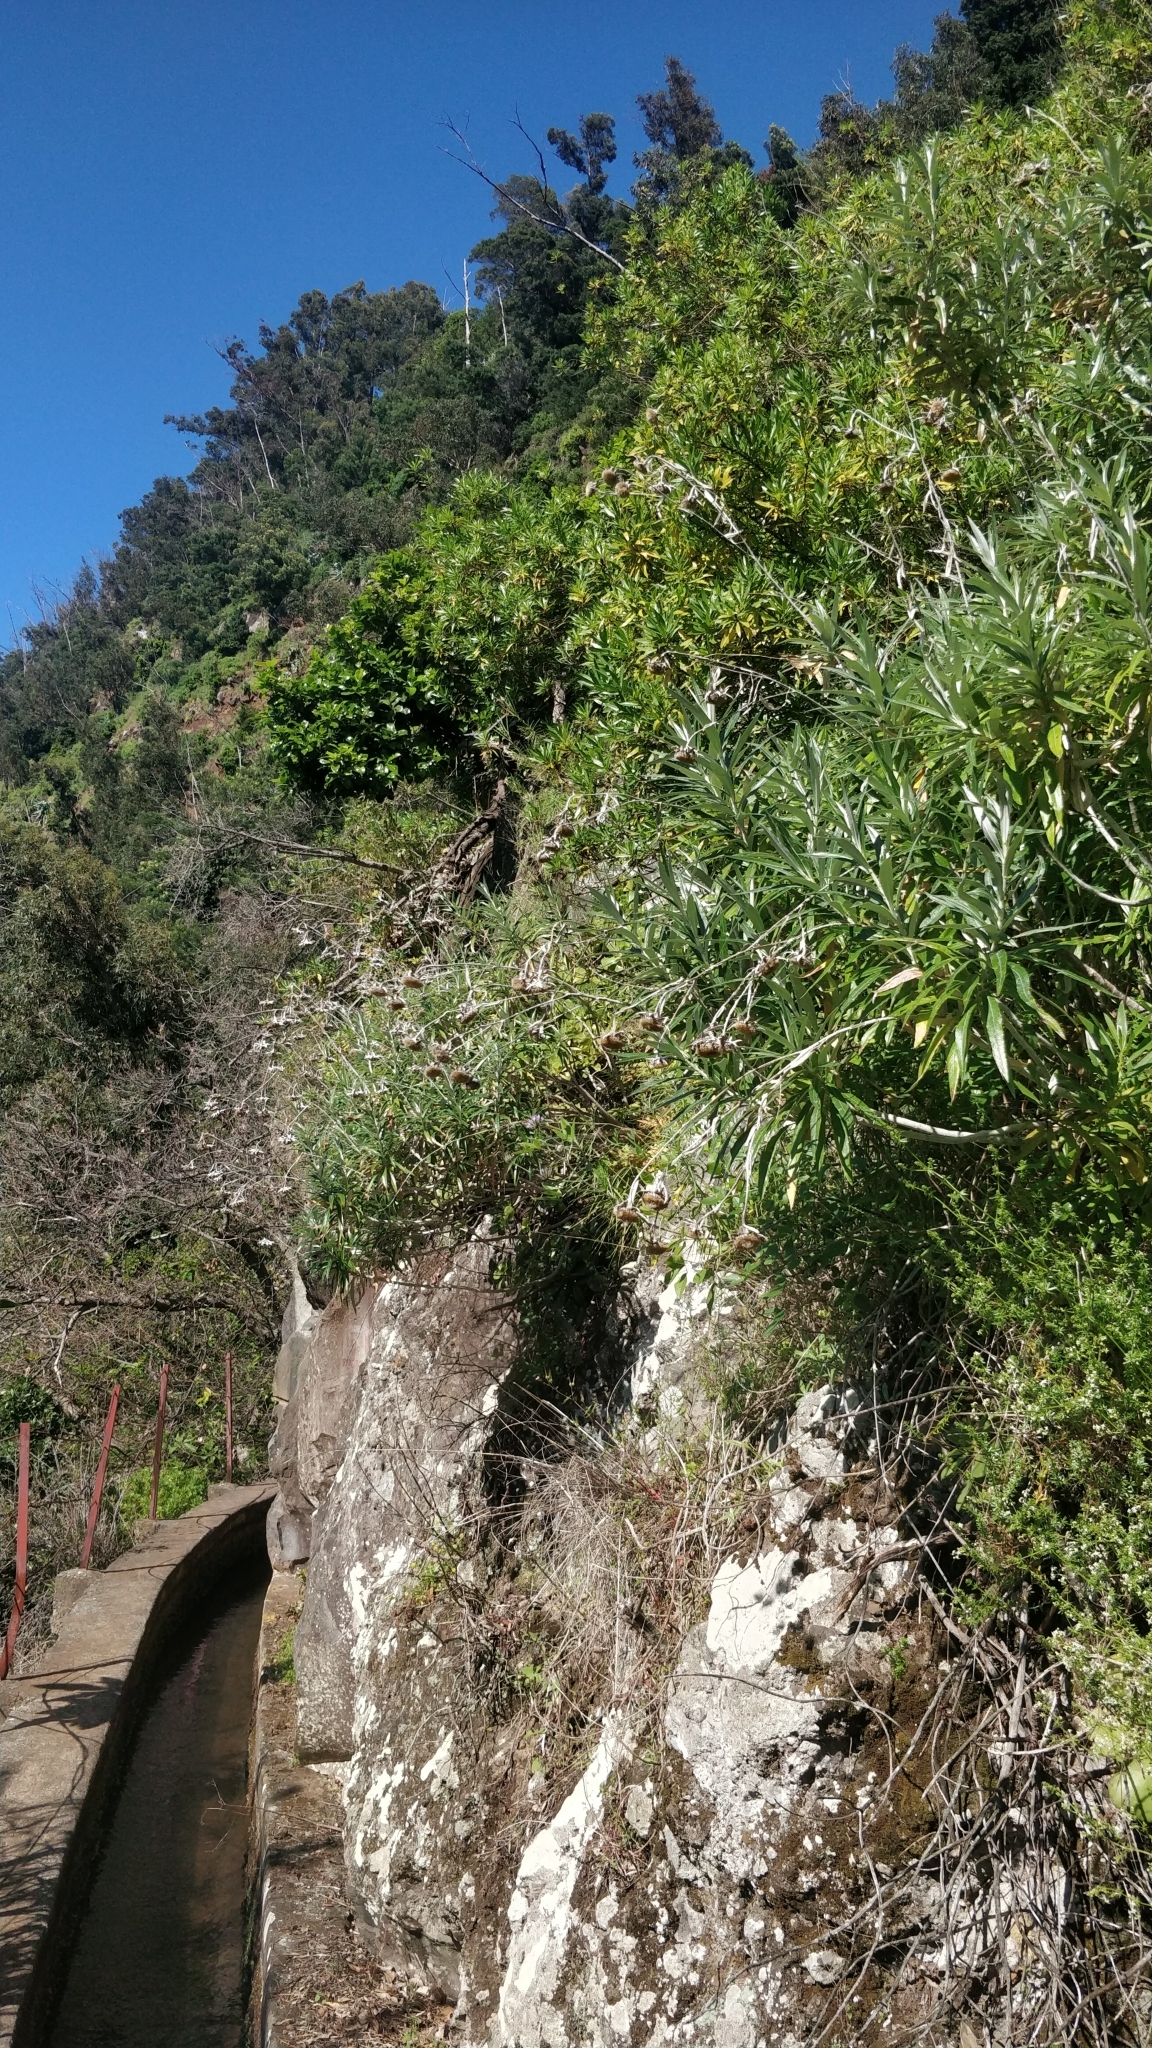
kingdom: Plantae
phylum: Tracheophyta
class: Magnoliopsida
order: Asterales
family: Asteraceae
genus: Carlina
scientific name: Carlina salicifolia
